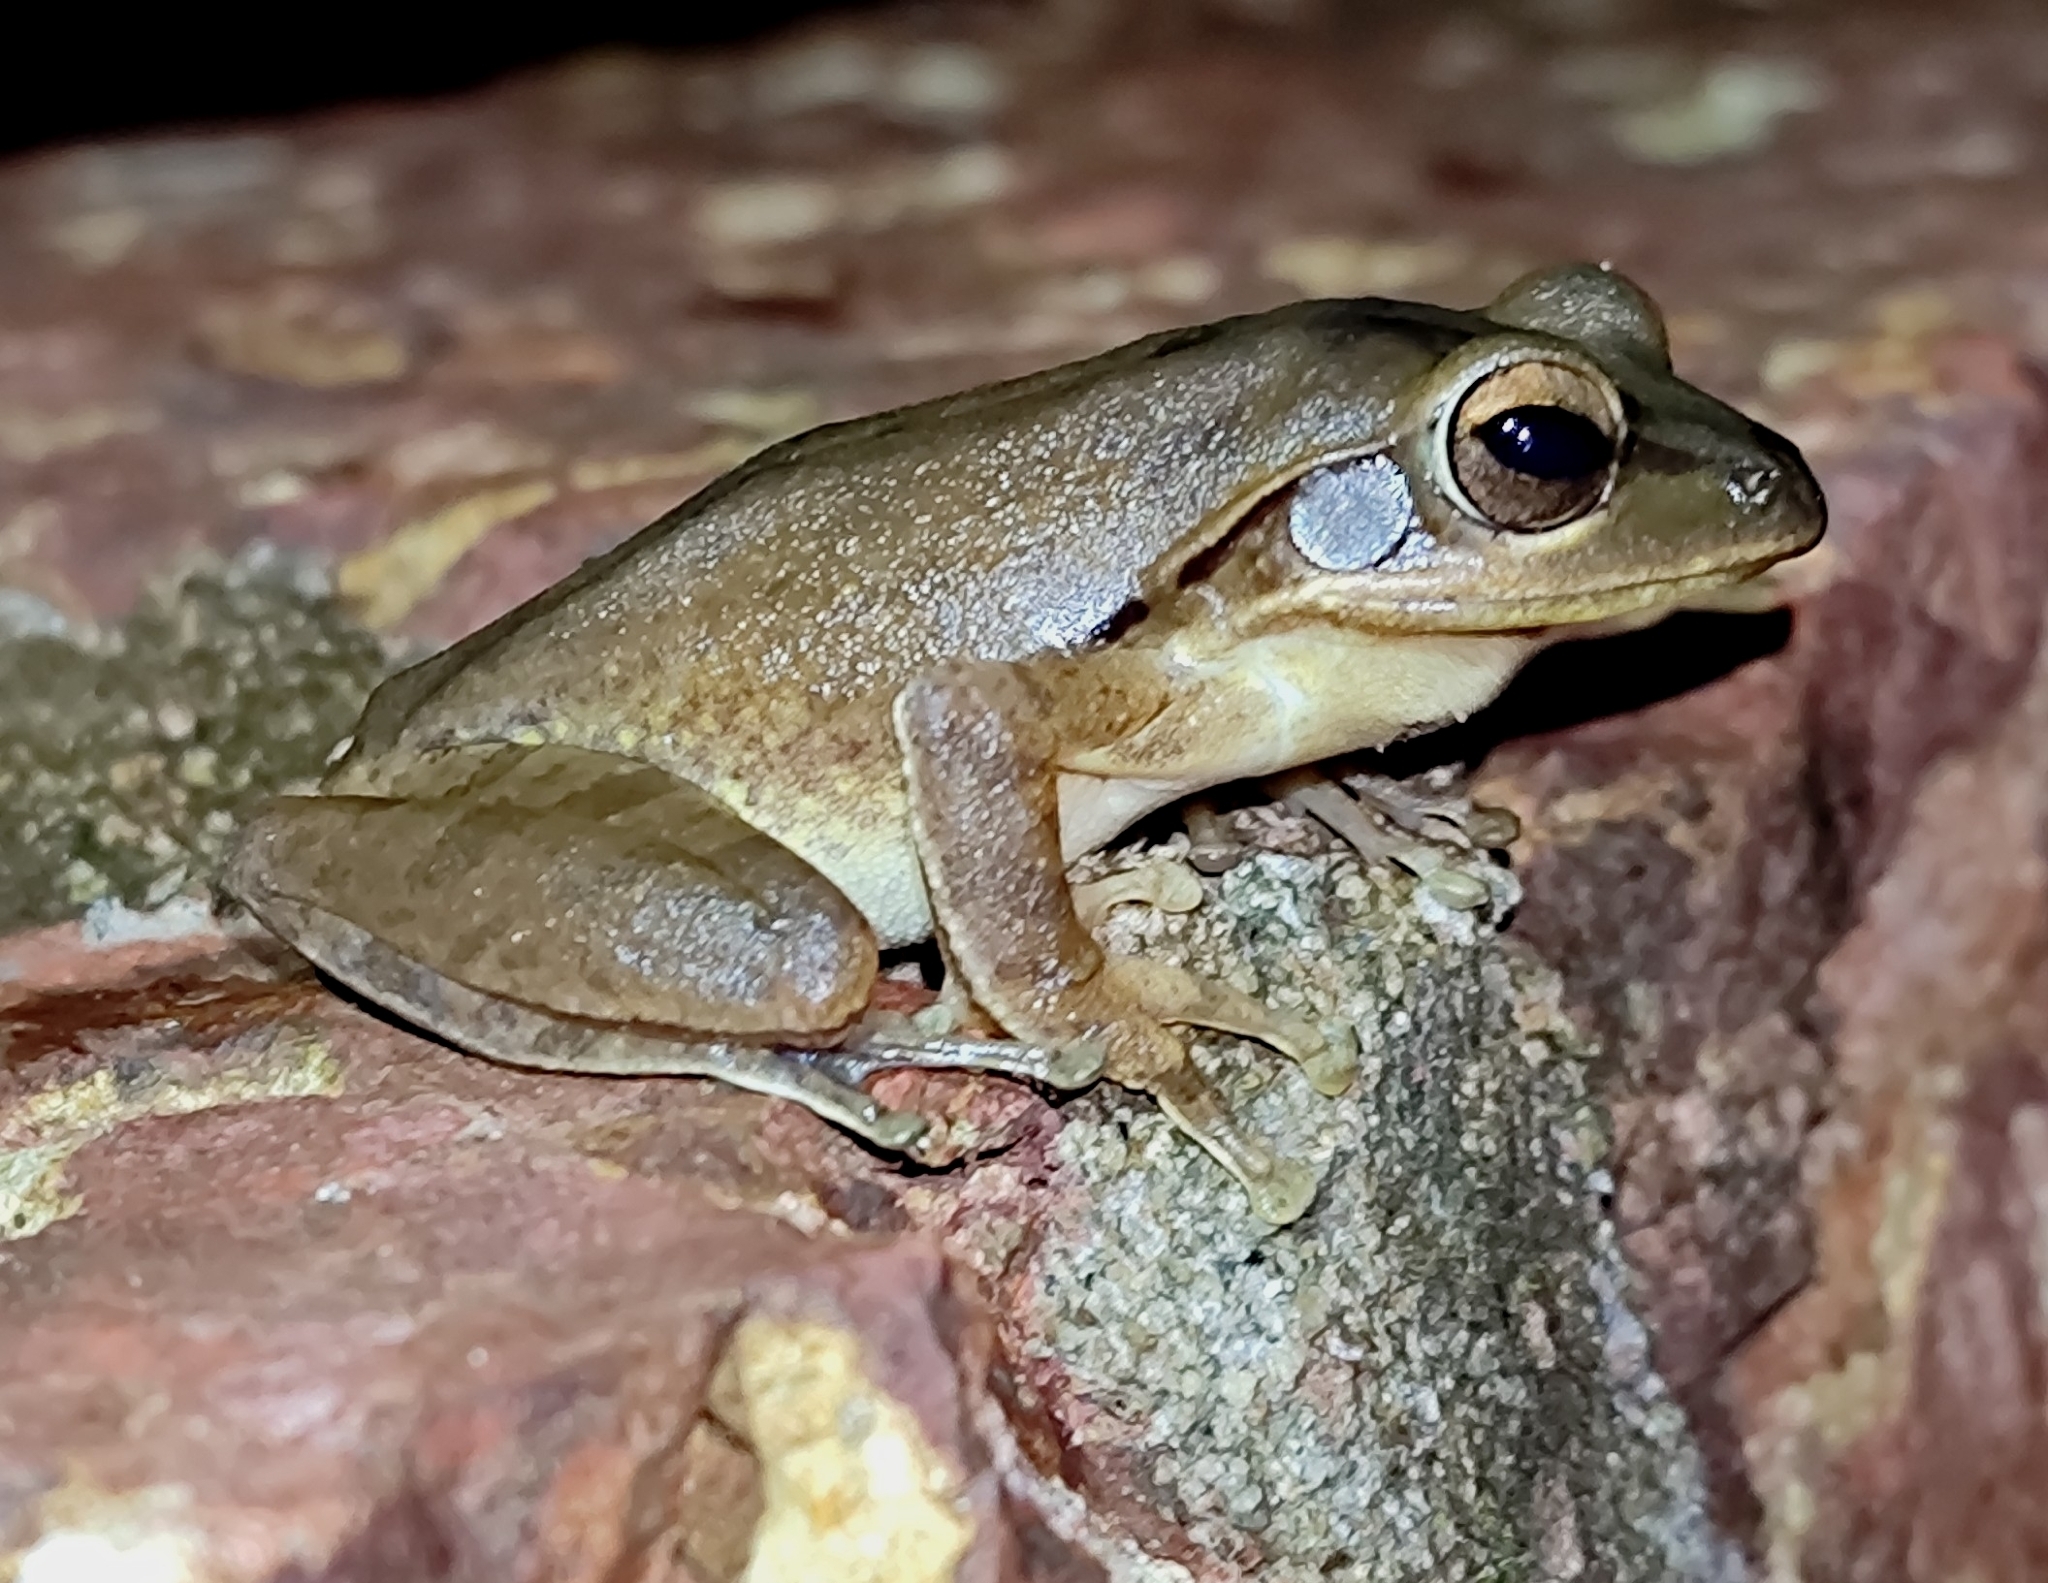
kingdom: Animalia
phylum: Chordata
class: Amphibia
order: Anura
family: Rhacophoridae
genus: Polypedates
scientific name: Polypedates maculatus
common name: Himalayan tree frog
